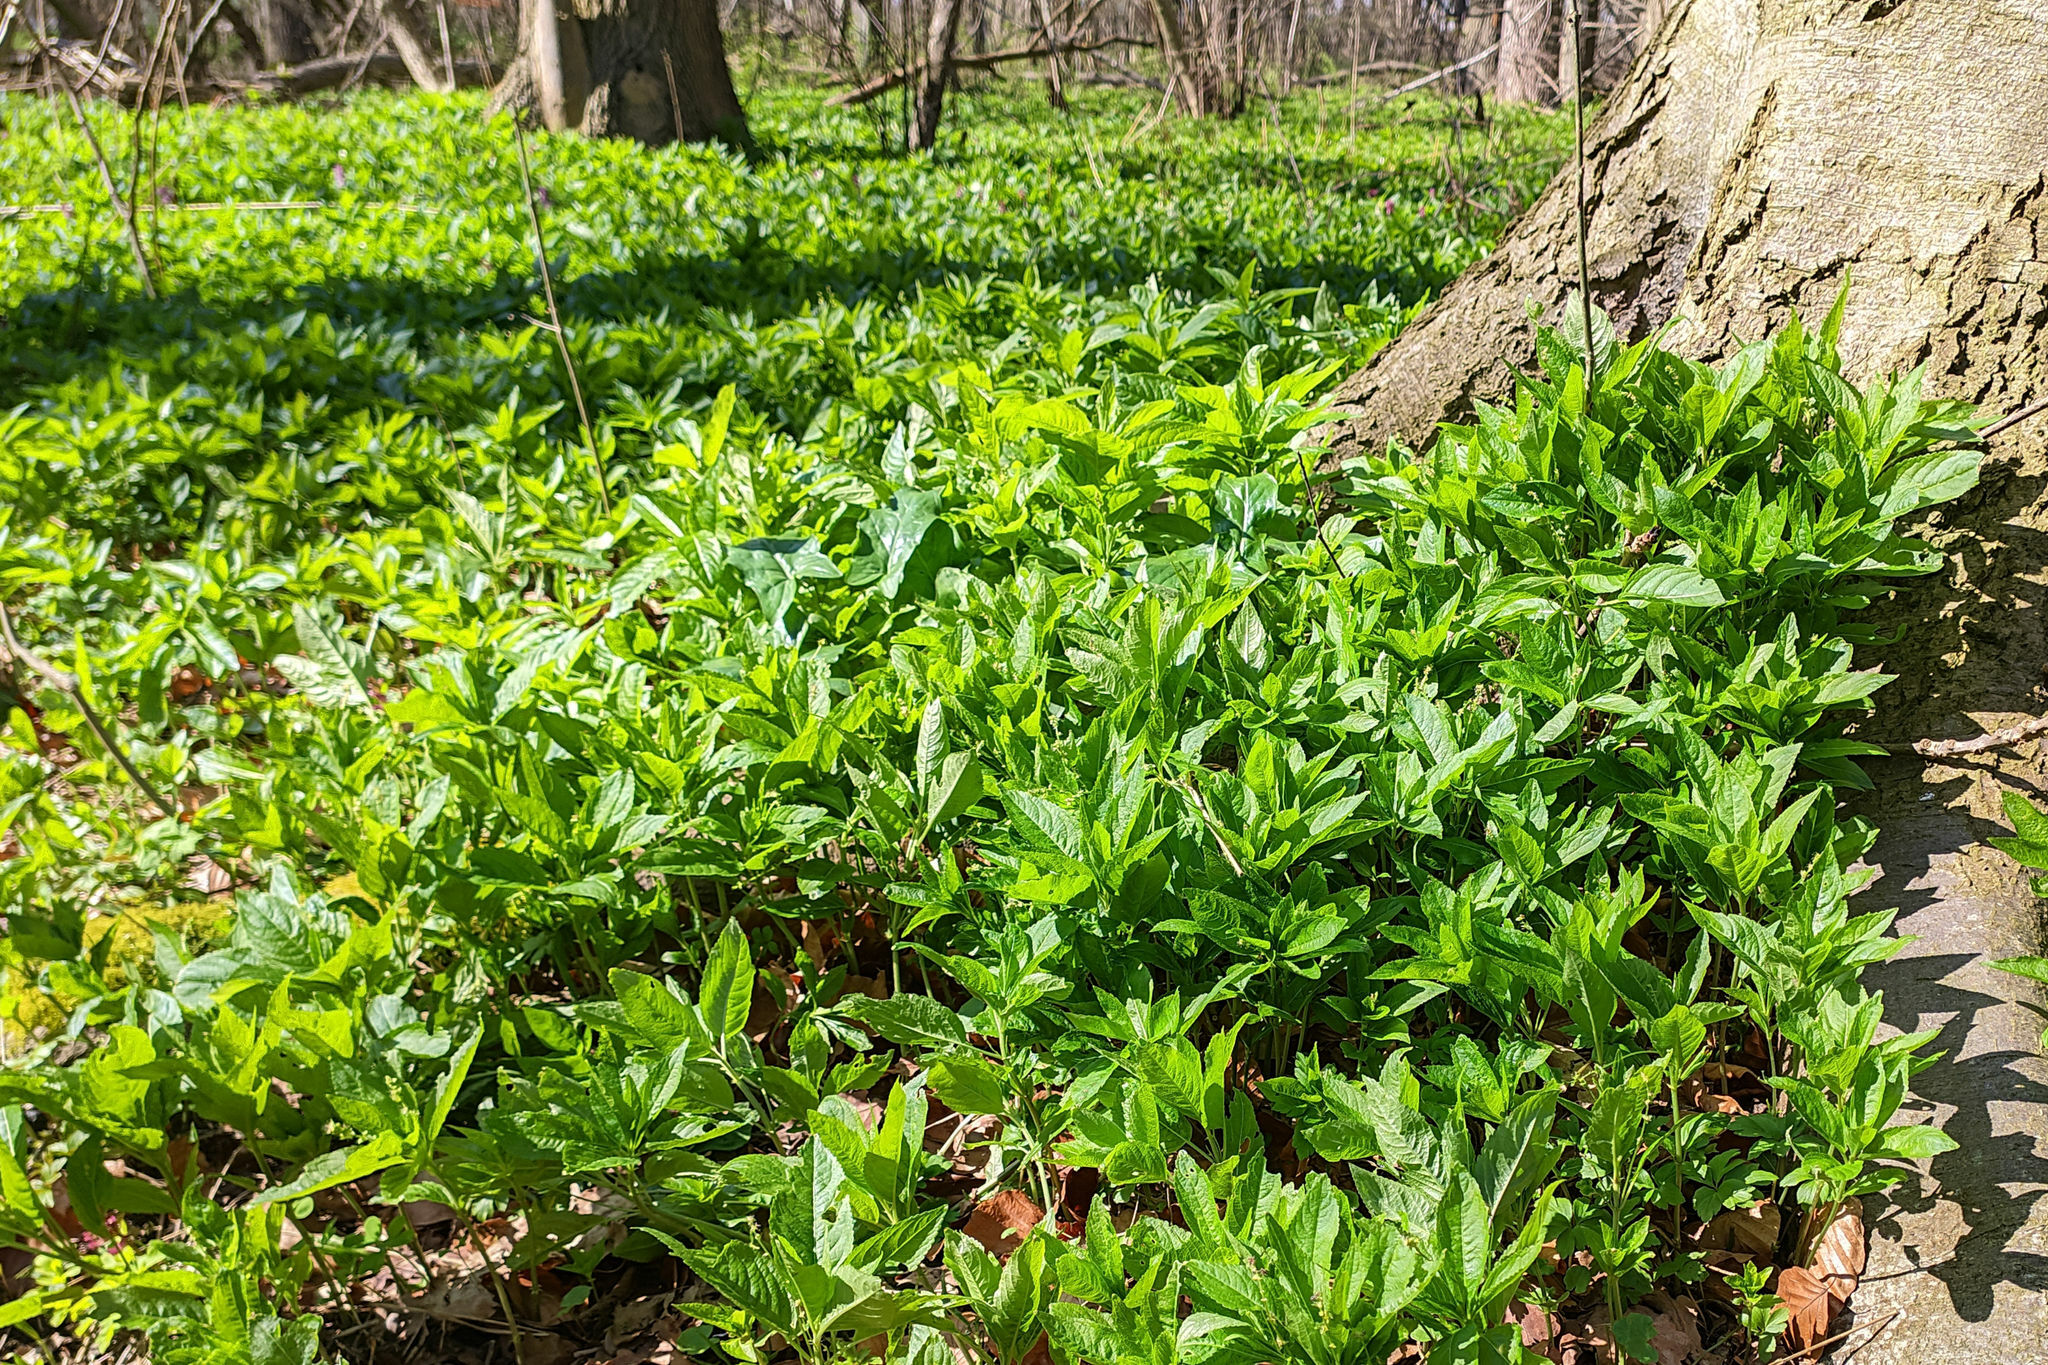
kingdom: Plantae
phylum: Tracheophyta
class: Magnoliopsida
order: Malpighiales
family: Euphorbiaceae
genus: Mercurialis
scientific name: Mercurialis perennis
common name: Dog mercury
